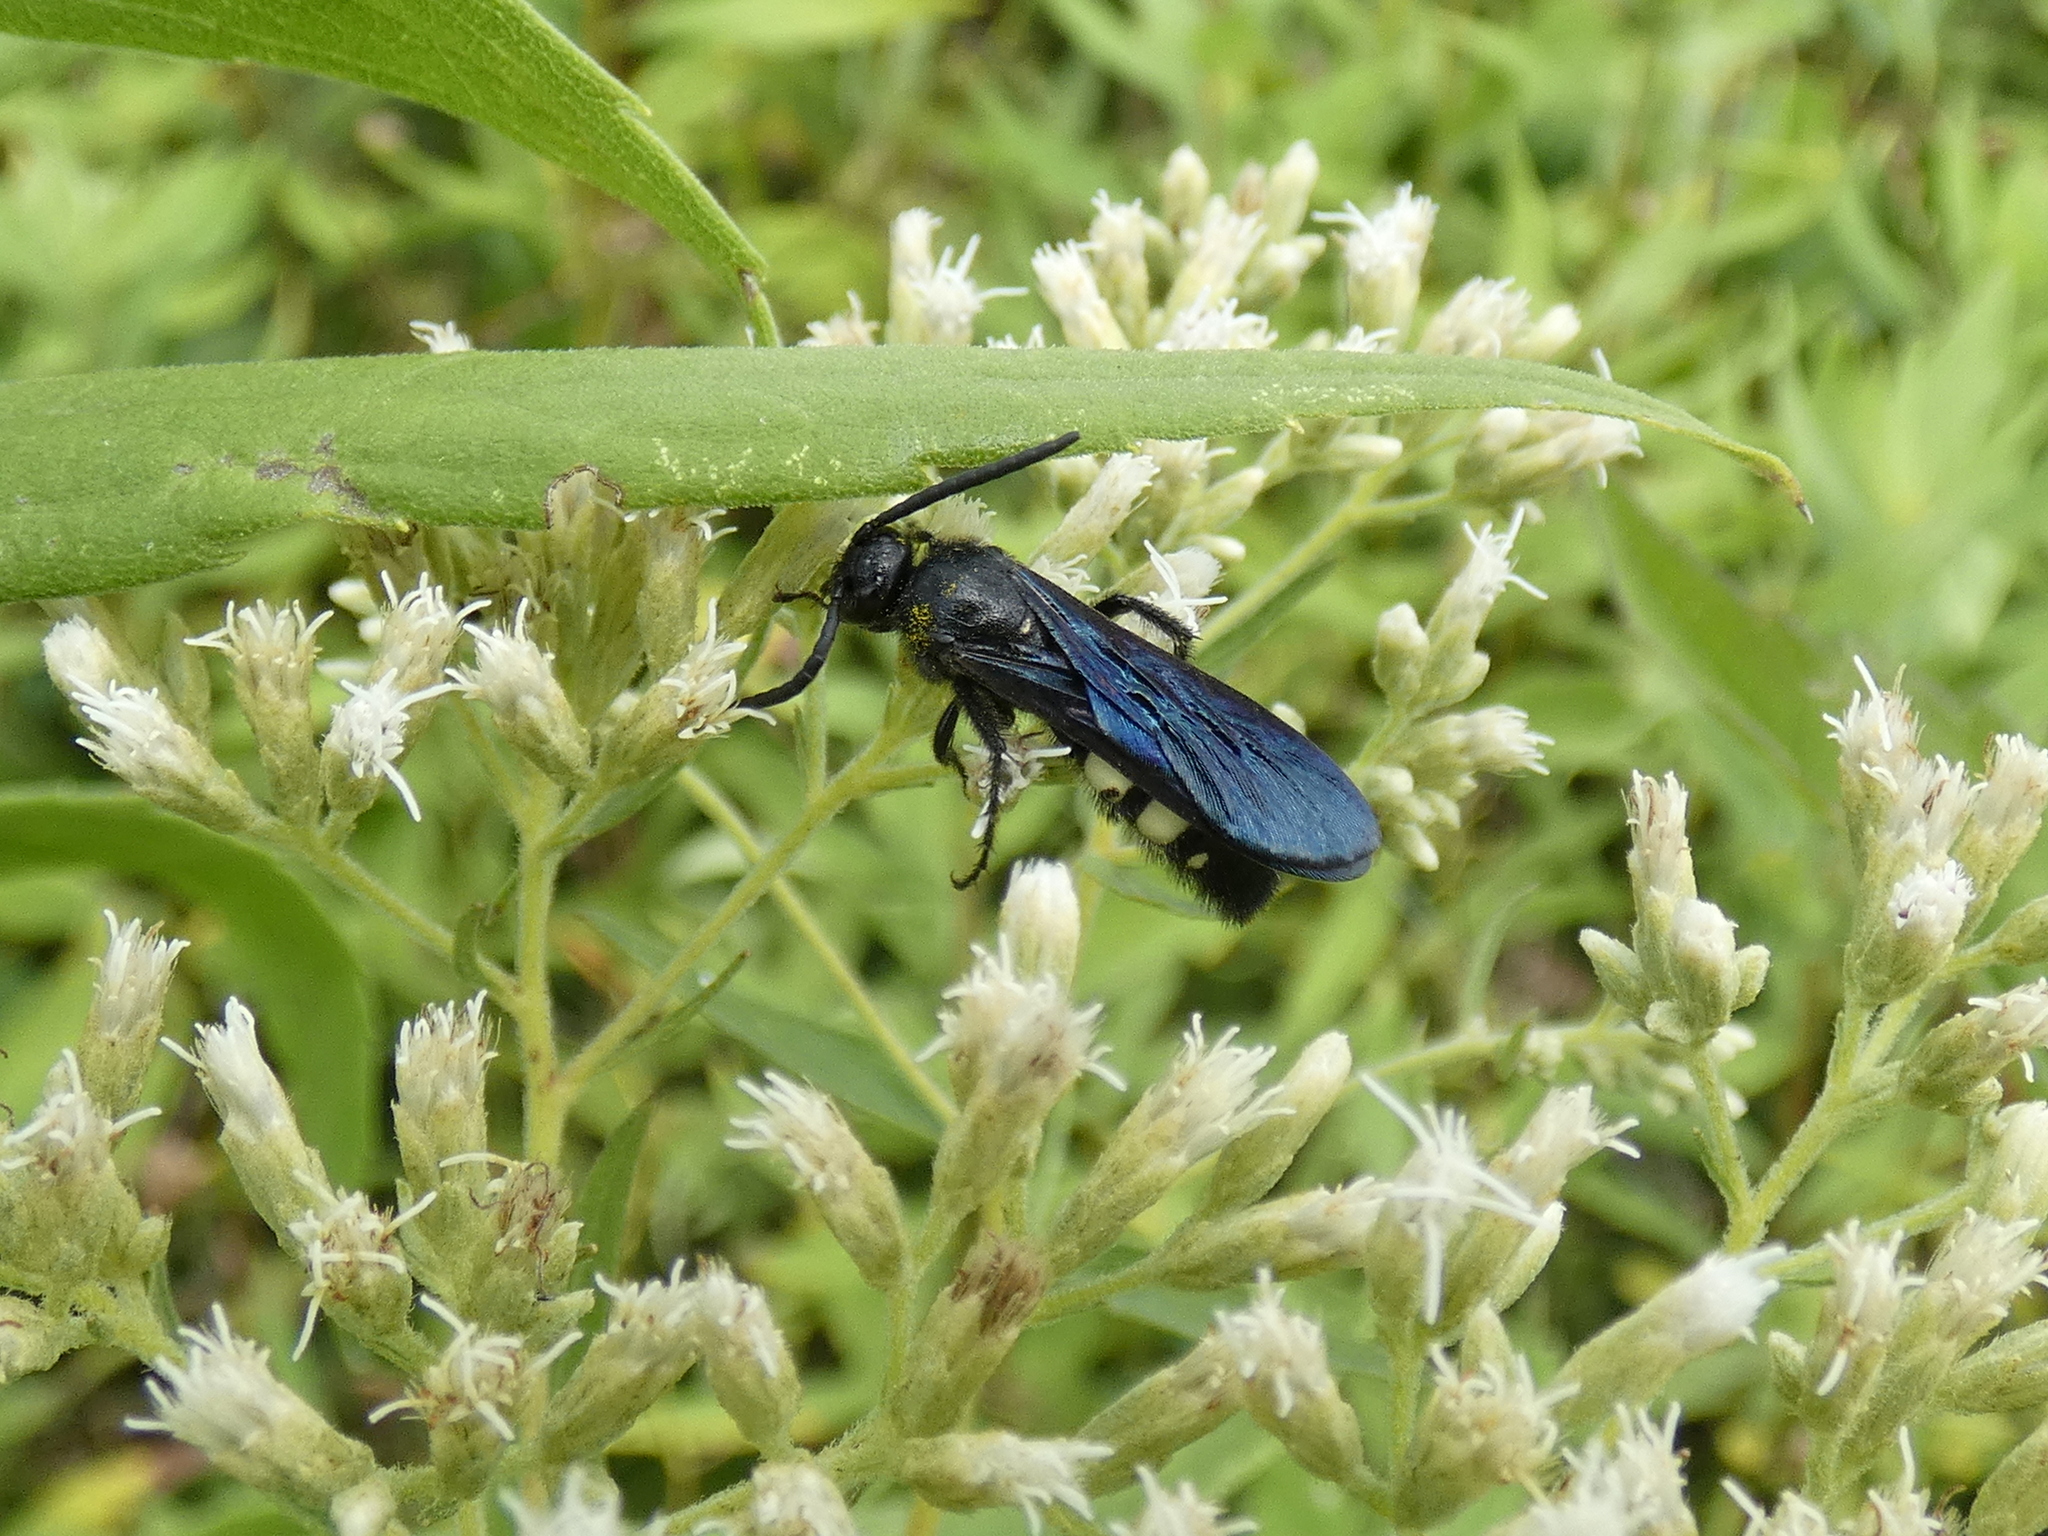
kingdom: Animalia
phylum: Arthropoda
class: Insecta
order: Hymenoptera
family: Scoliidae
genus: Scolia
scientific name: Scolia bicincta
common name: Double-banded scoliid wasp
